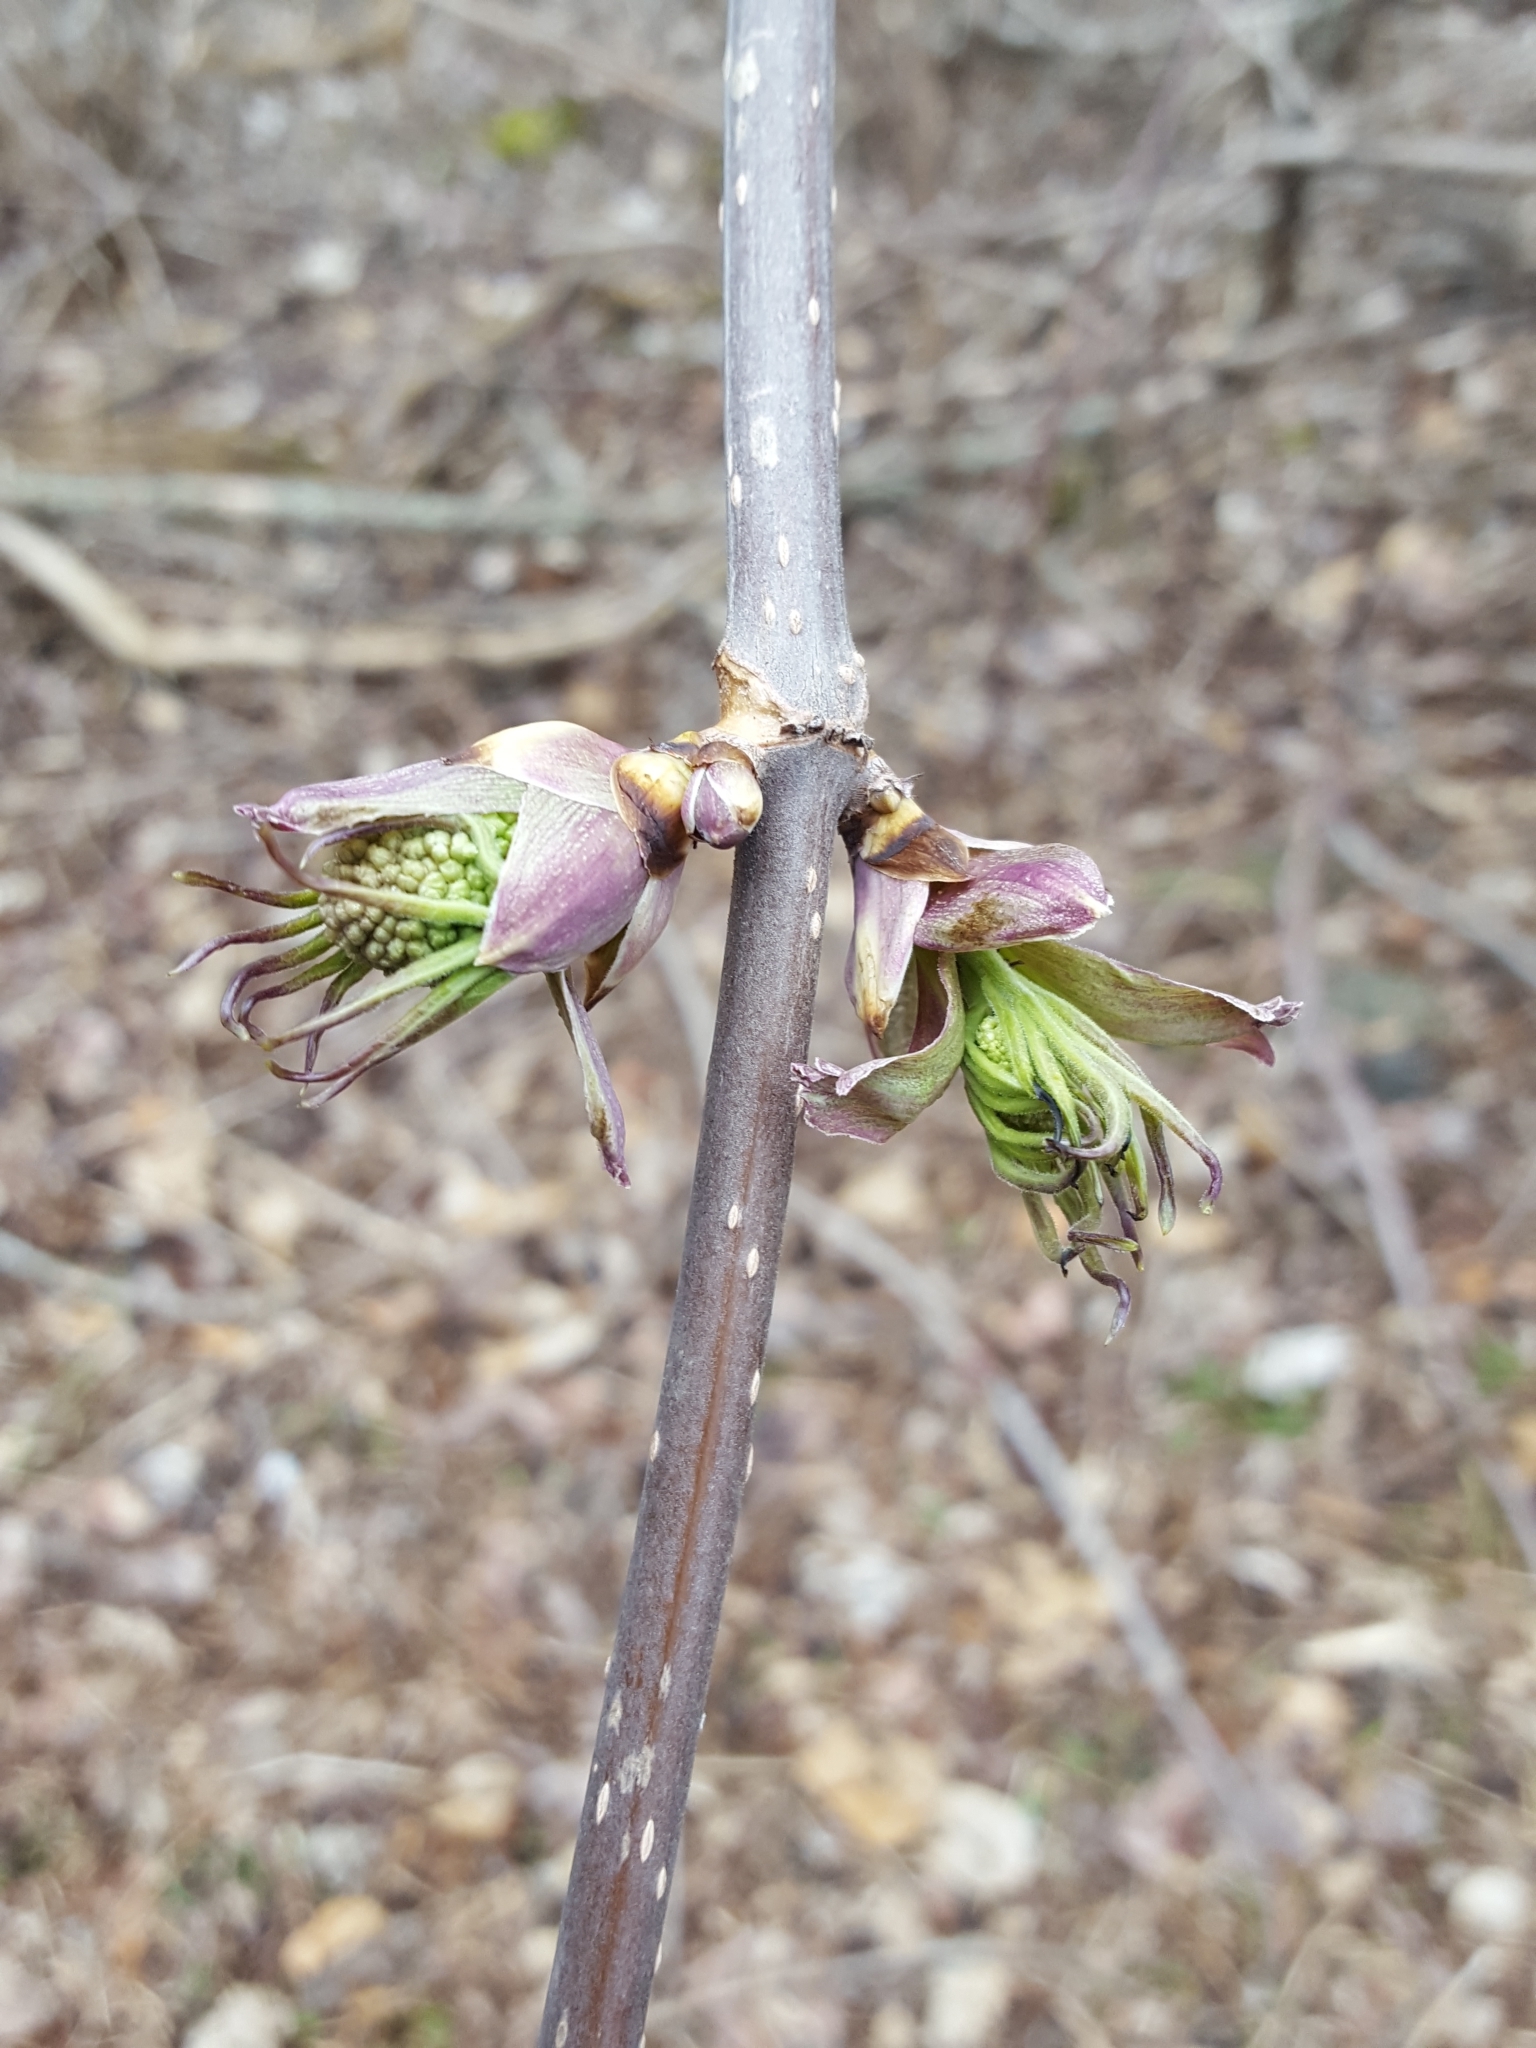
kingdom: Plantae
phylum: Tracheophyta
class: Magnoliopsida
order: Dipsacales
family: Viburnaceae
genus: Sambucus
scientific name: Sambucus racemosa
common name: Red-berried elder
